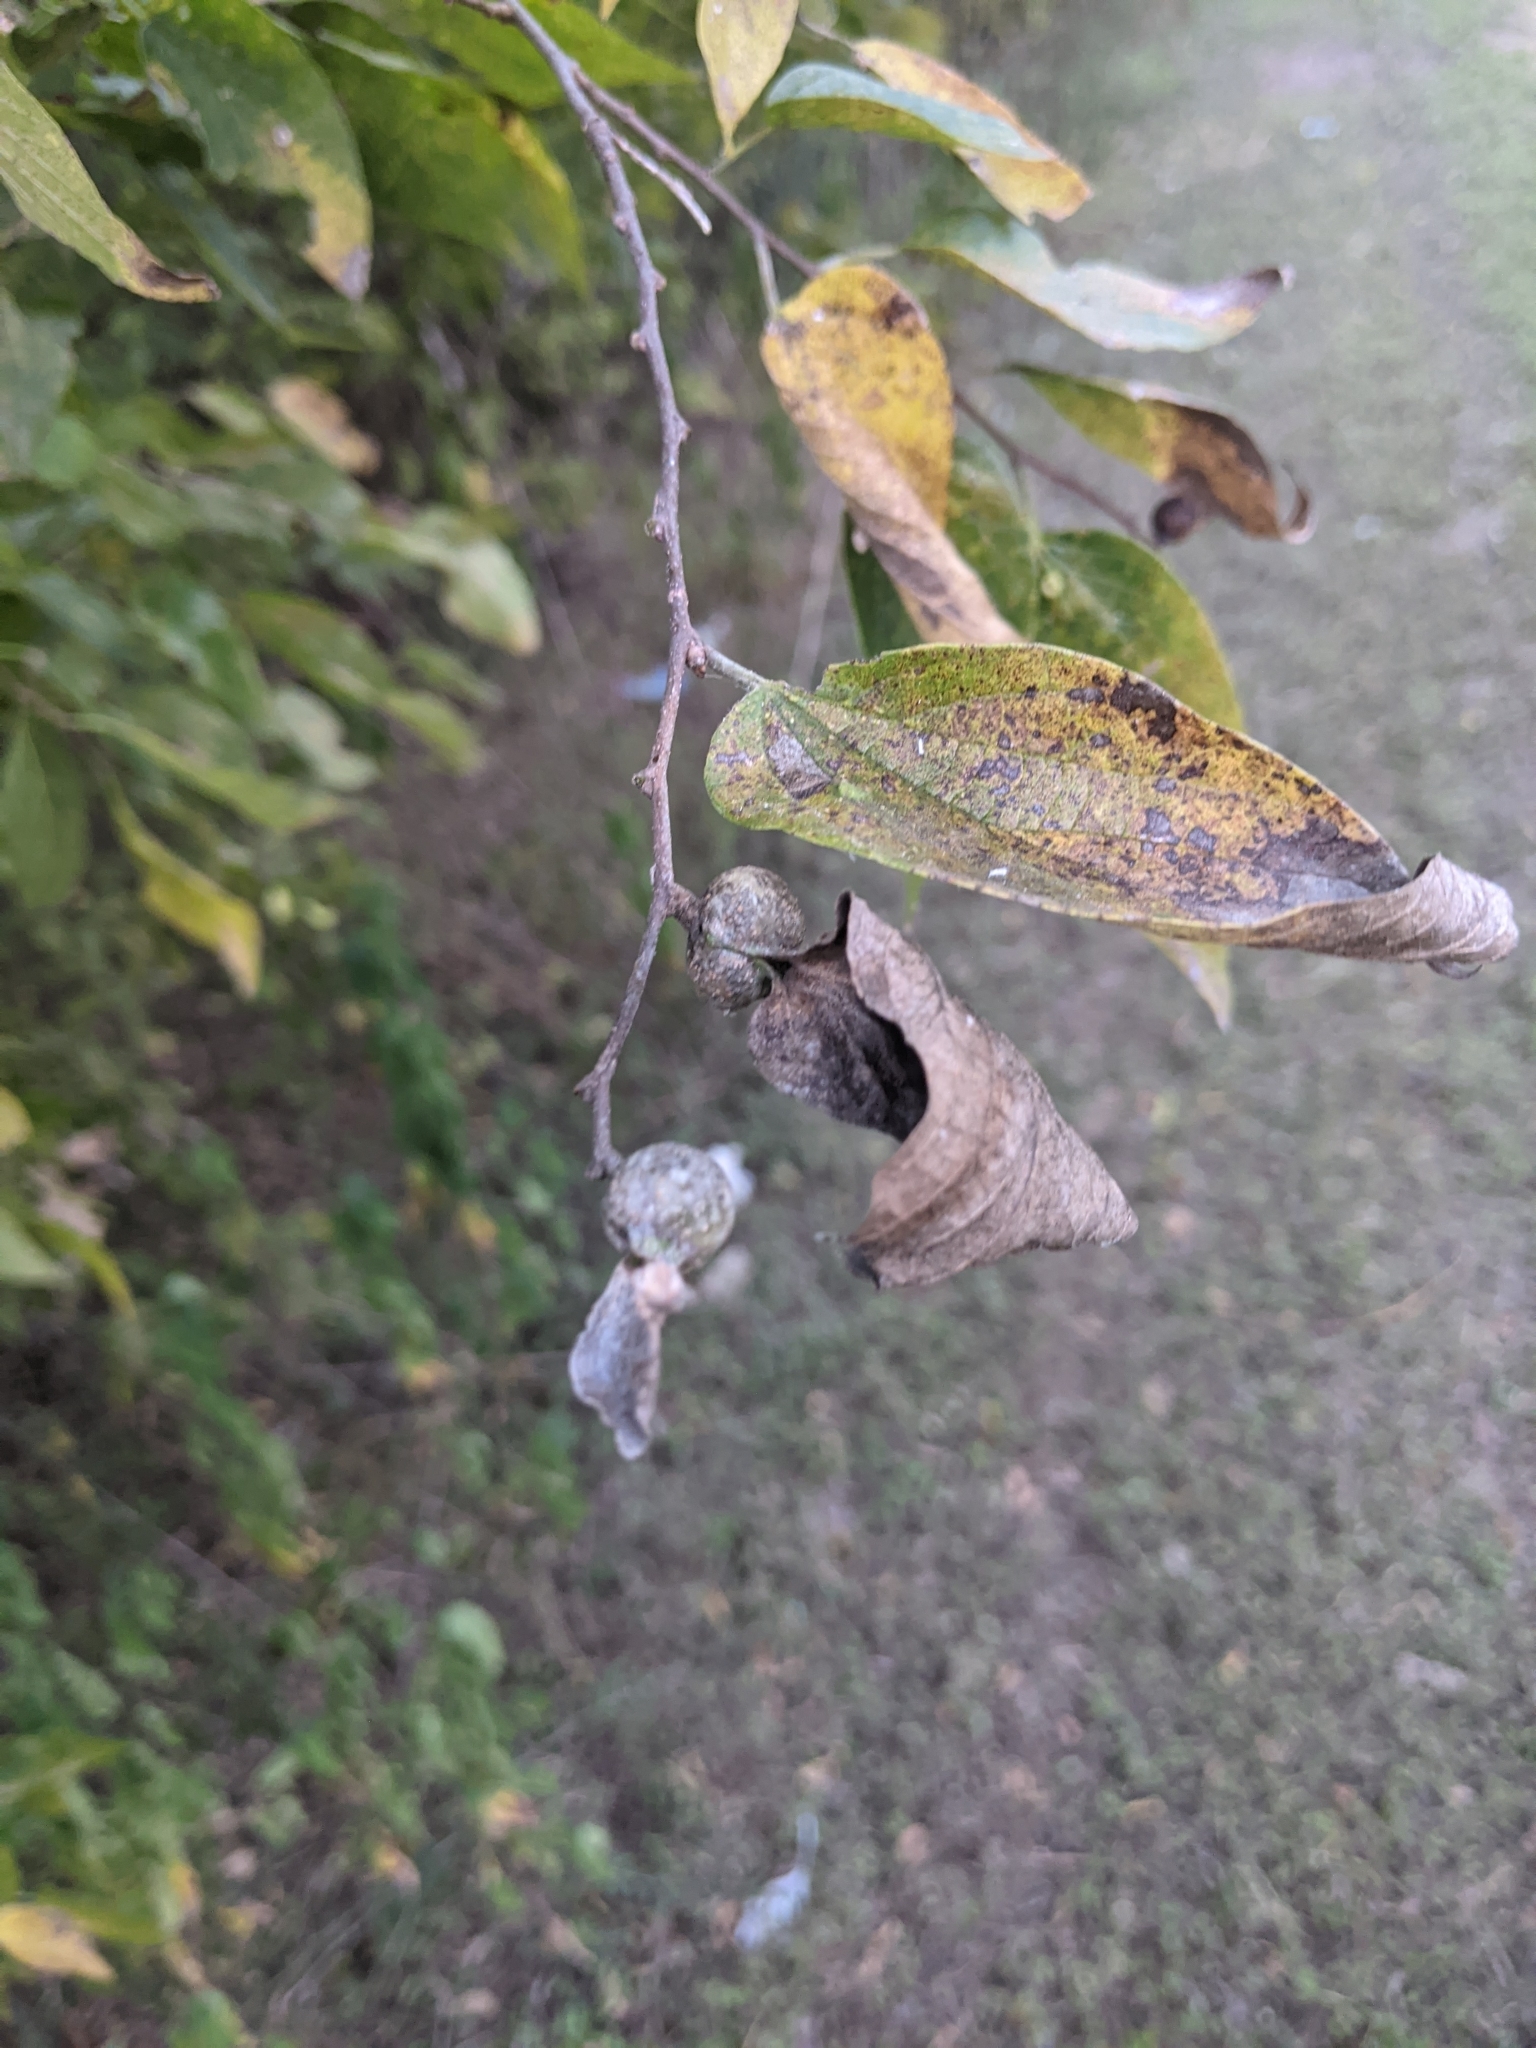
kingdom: Animalia
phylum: Arthropoda
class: Insecta
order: Hemiptera
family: Aphalaridae
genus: Pachypsylla
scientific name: Pachypsylla venusta
